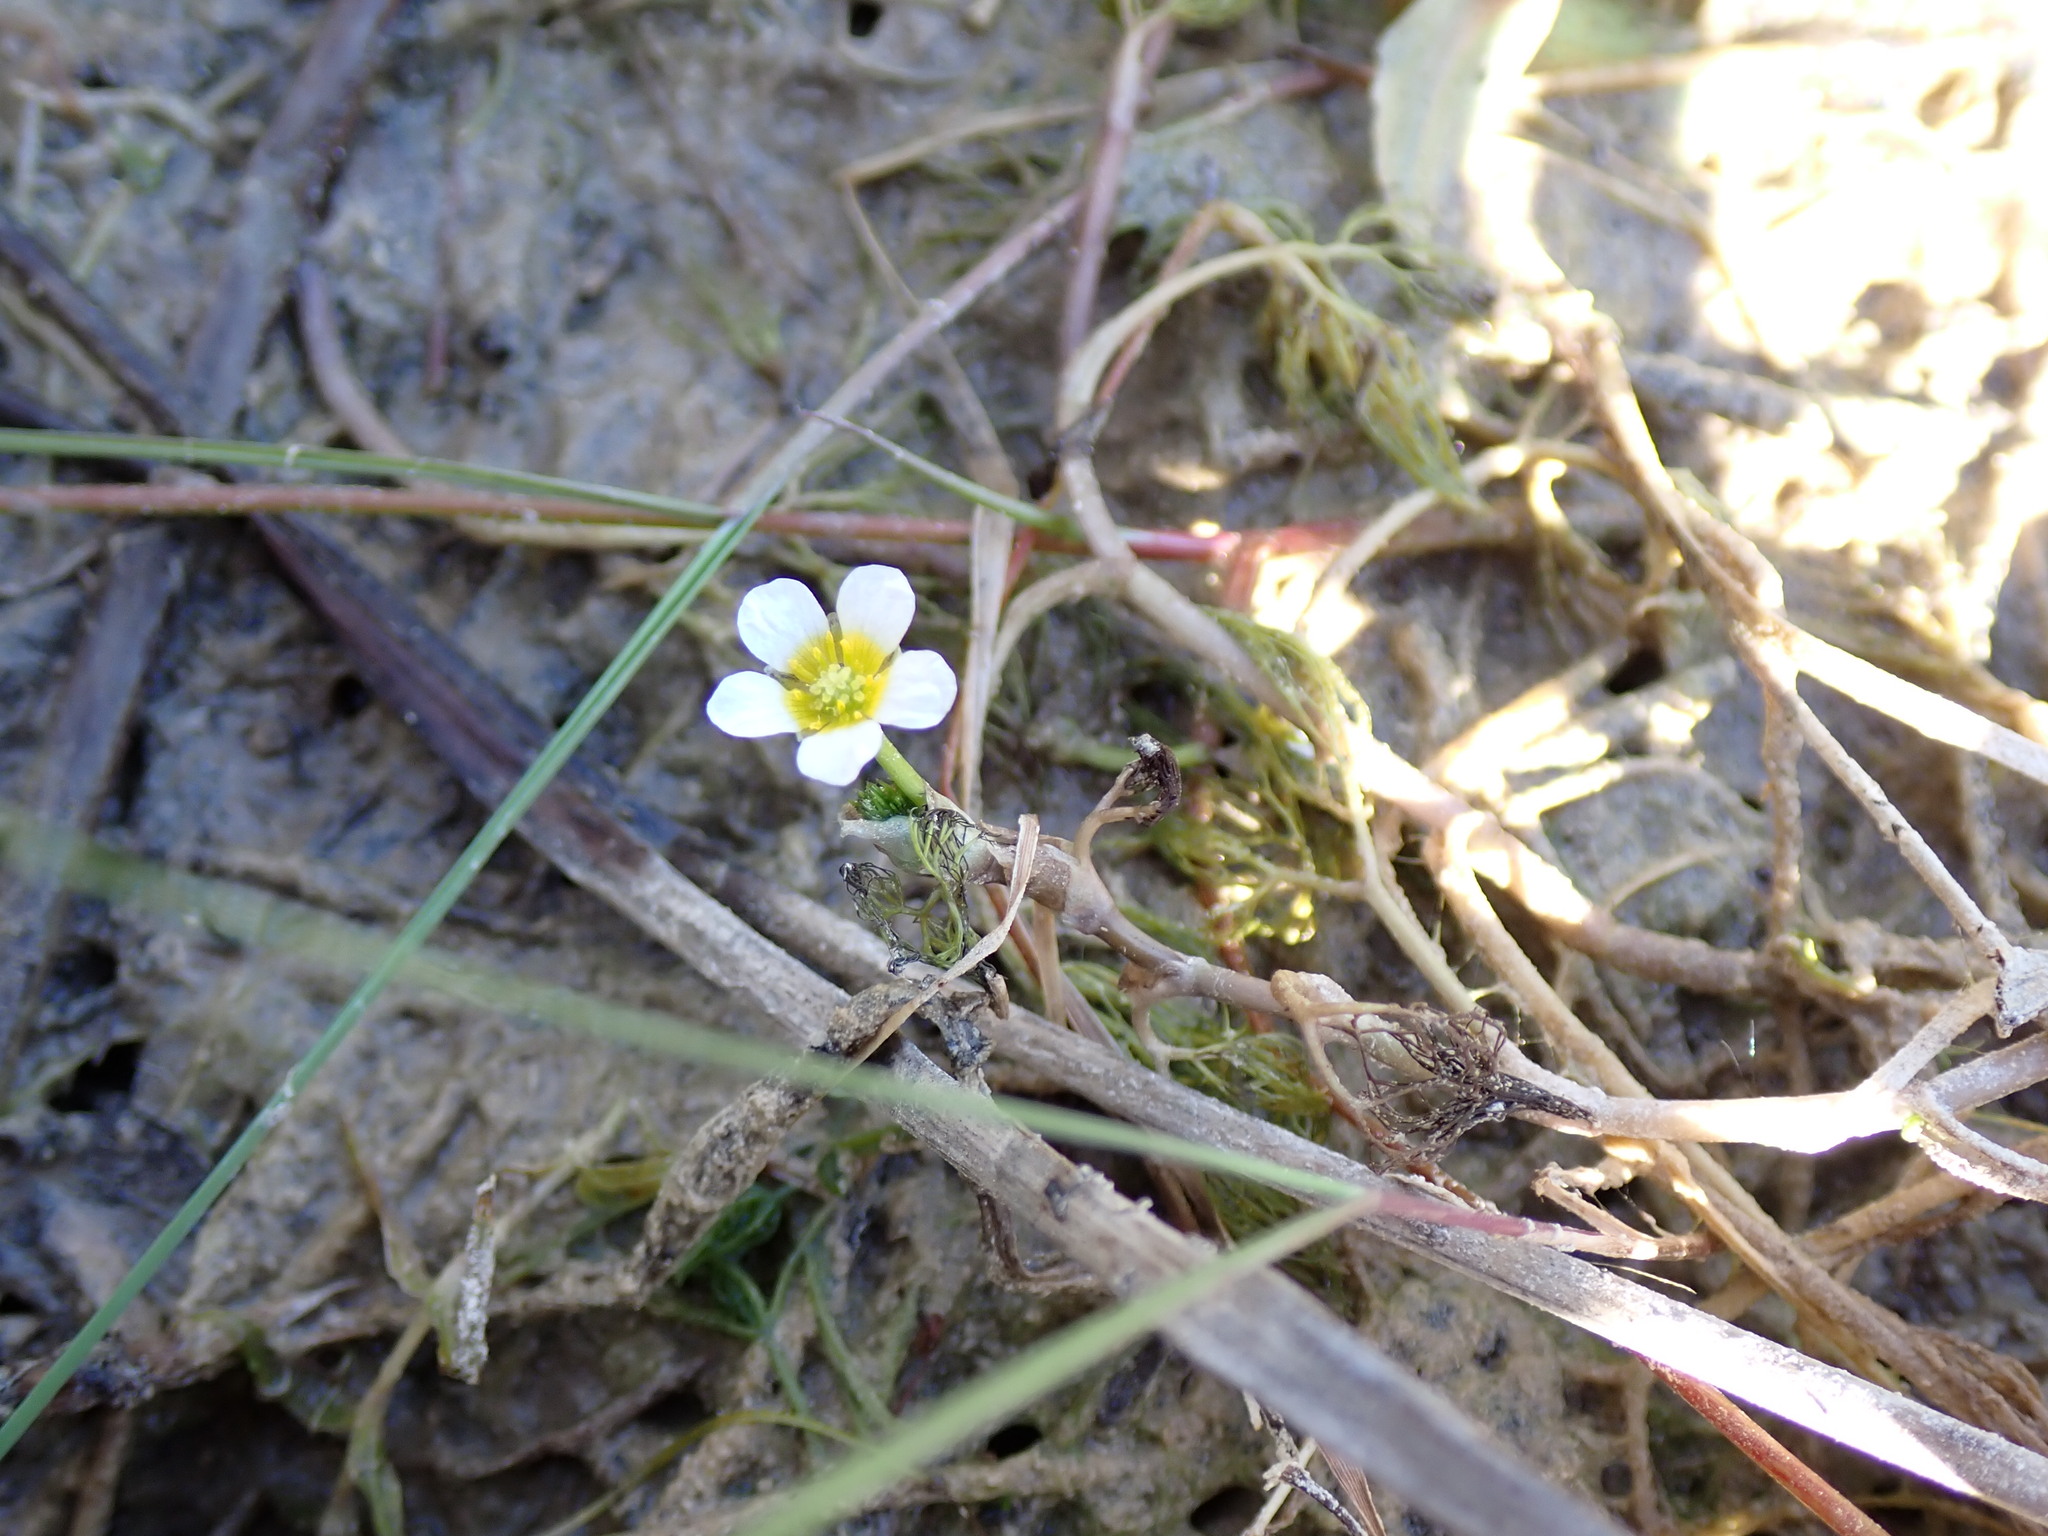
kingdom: Plantae
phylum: Tracheophyta
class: Magnoliopsida
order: Ranunculales
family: Ranunculaceae
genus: Ranunculus
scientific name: Ranunculus trichophyllus
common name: Thread-leaved water-crowfoot
